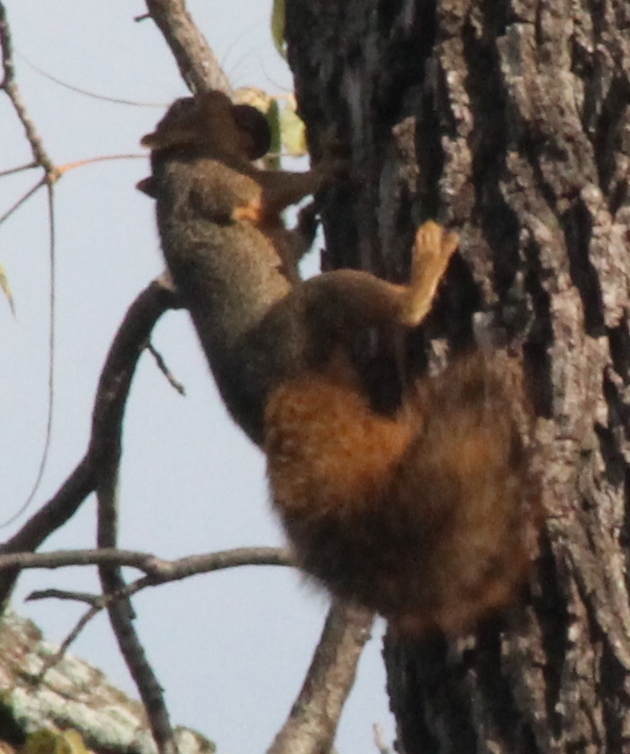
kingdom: Animalia
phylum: Chordata
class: Mammalia
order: Rodentia
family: Sciuridae
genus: Sciurus
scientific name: Sciurus niger
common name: Fox squirrel
